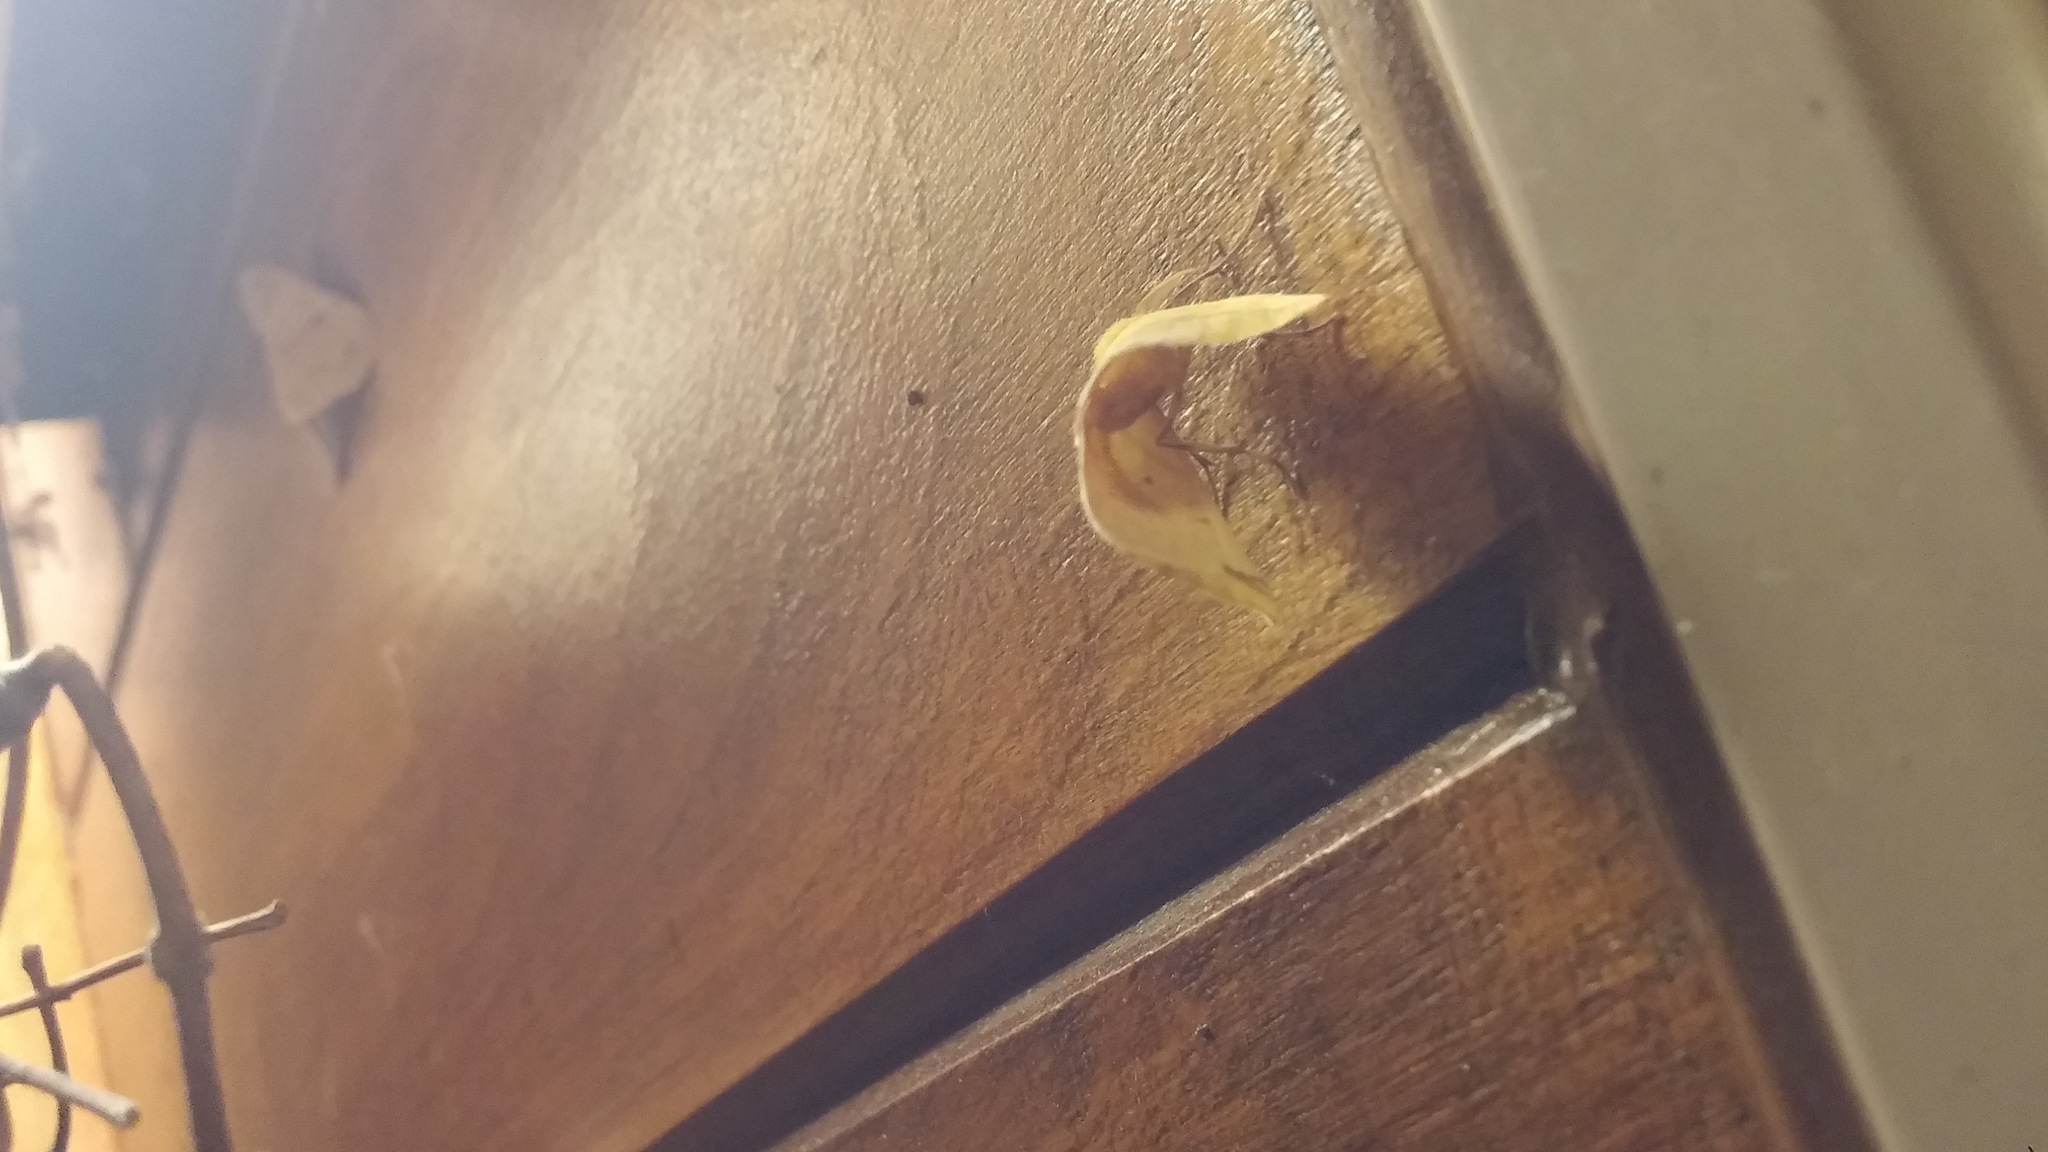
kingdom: Animalia
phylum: Arthropoda
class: Insecta
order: Lepidoptera
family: Geometridae
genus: Sicya
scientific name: Sicya macularia
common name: Sharp-lined yellow
